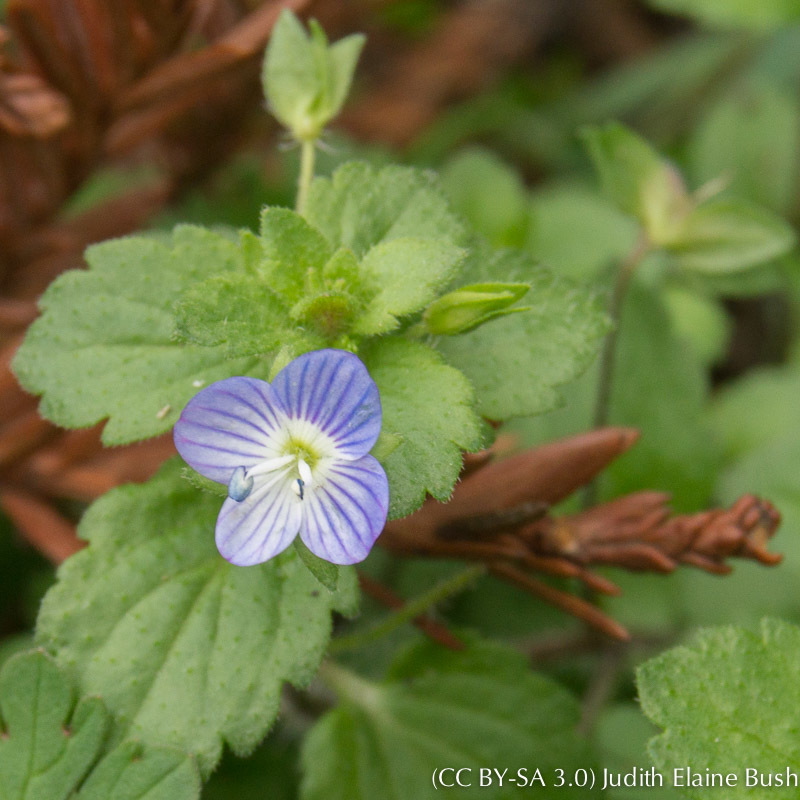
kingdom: Plantae
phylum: Tracheophyta
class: Magnoliopsida
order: Lamiales
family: Plantaginaceae
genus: Veronica
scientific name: Veronica persica
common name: Common field-speedwell
